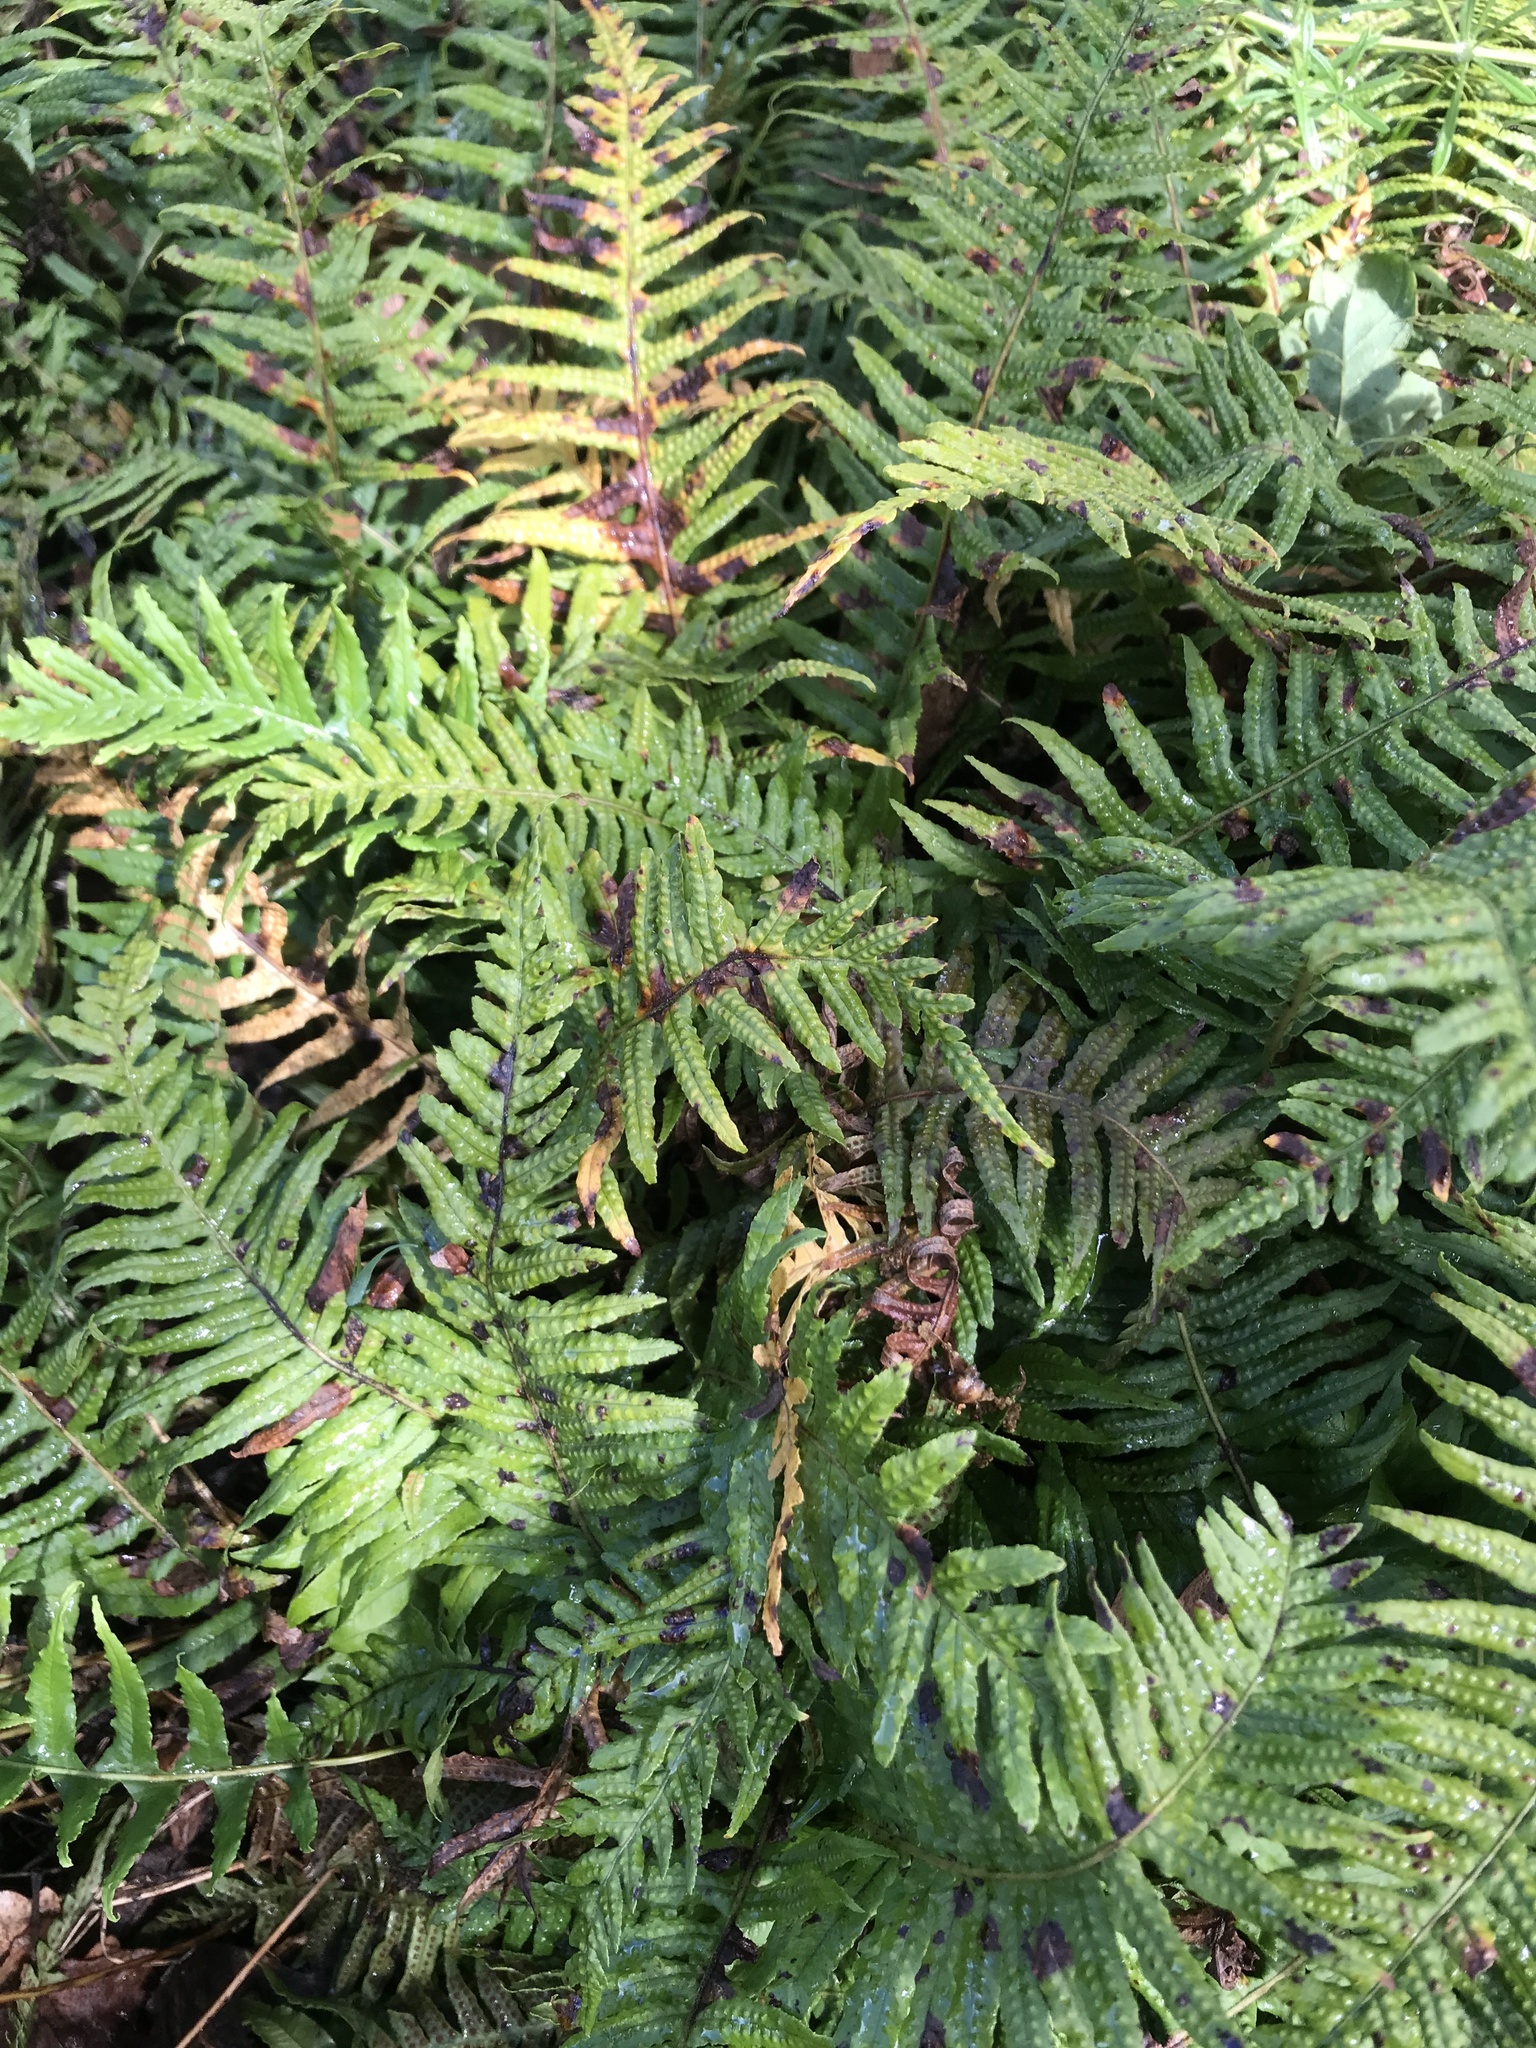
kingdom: Plantae
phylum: Tracheophyta
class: Polypodiopsida
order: Polypodiales
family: Polypodiaceae
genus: Polypodium
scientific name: Polypodium glycyrrhiza
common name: Licorice fern
